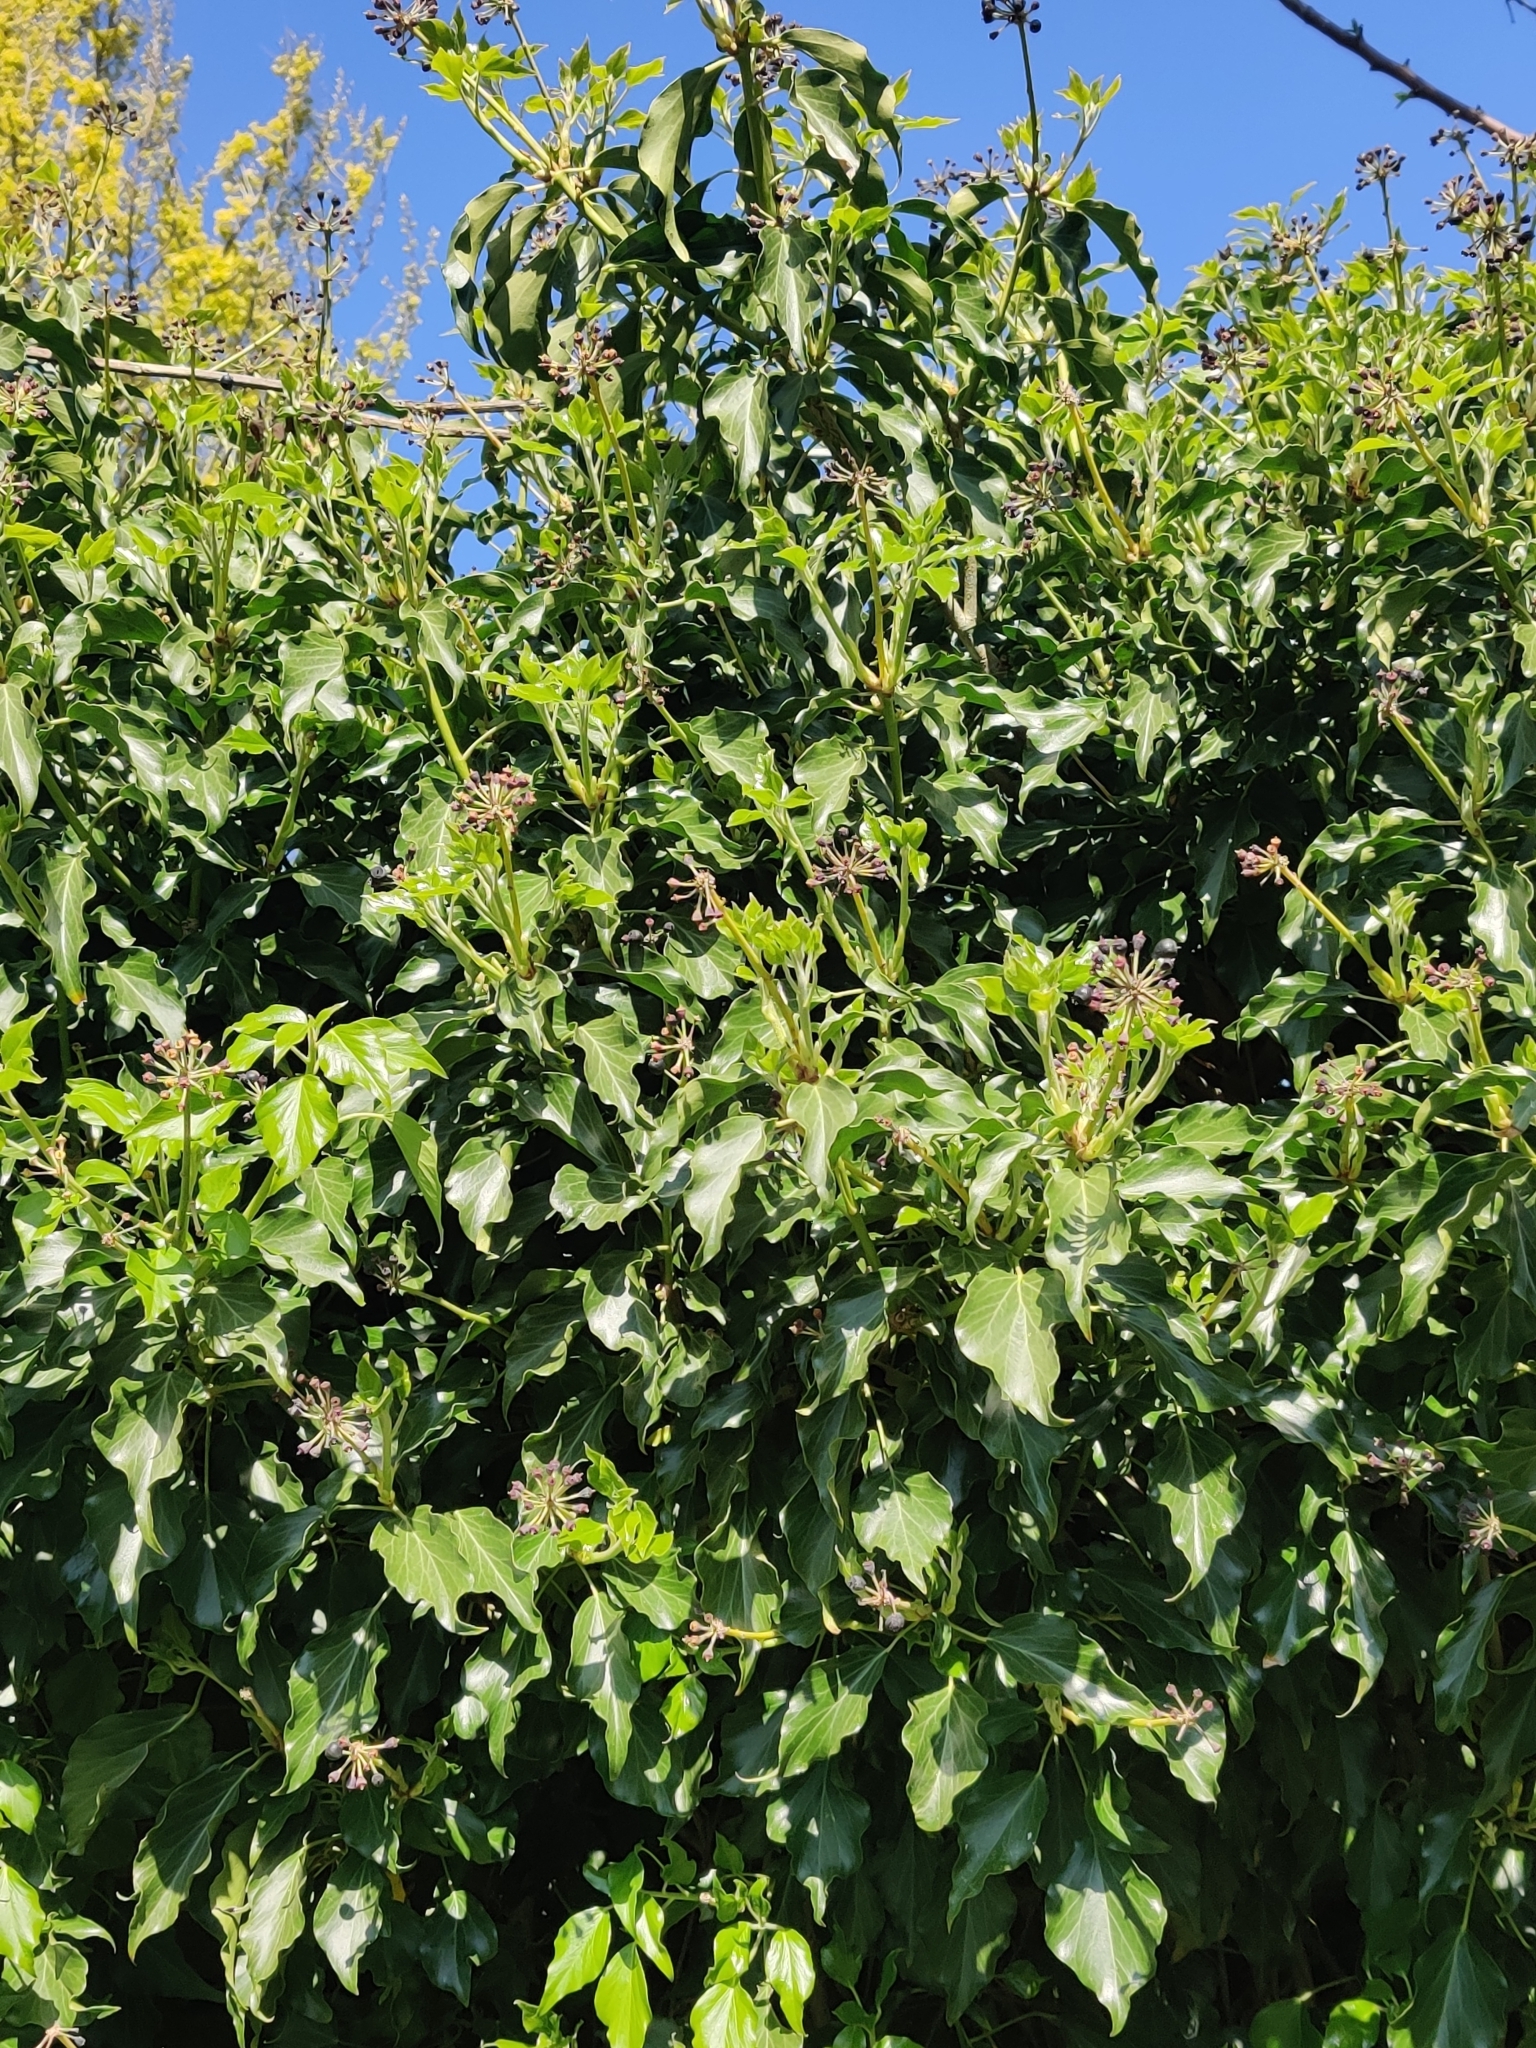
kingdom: Plantae
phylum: Tracheophyta
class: Magnoliopsida
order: Apiales
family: Araliaceae
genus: Hedera
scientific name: Hedera helix
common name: Ivy
